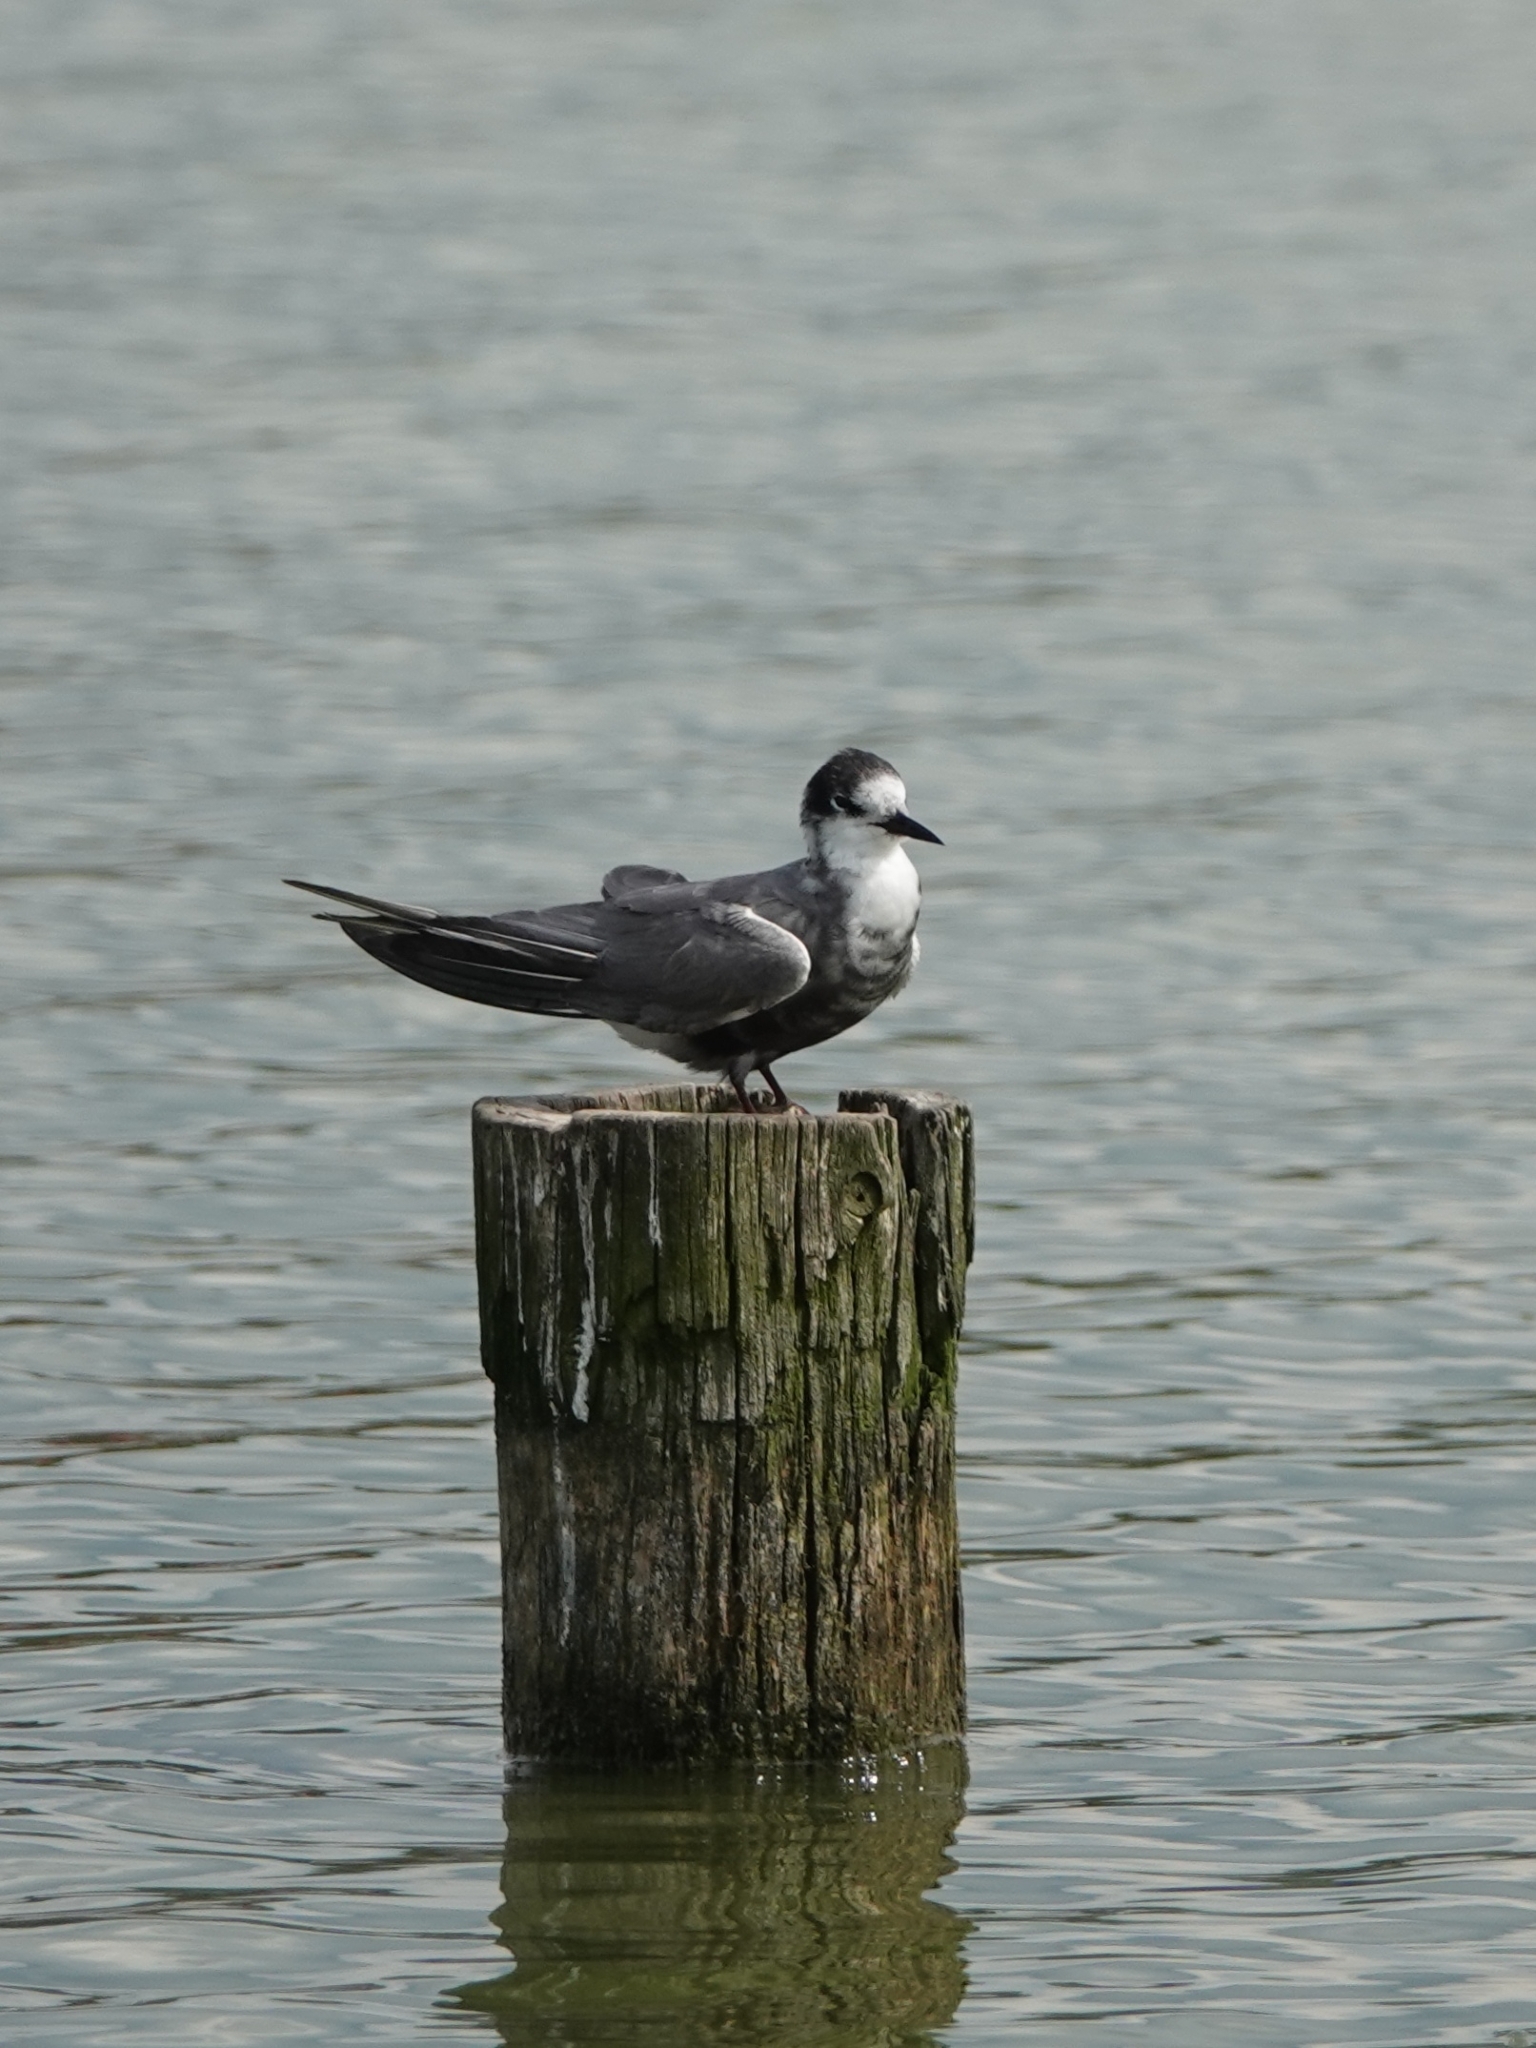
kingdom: Animalia
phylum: Chordata
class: Aves
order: Charadriiformes
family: Laridae
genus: Chlidonias
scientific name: Chlidonias niger
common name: Black tern
